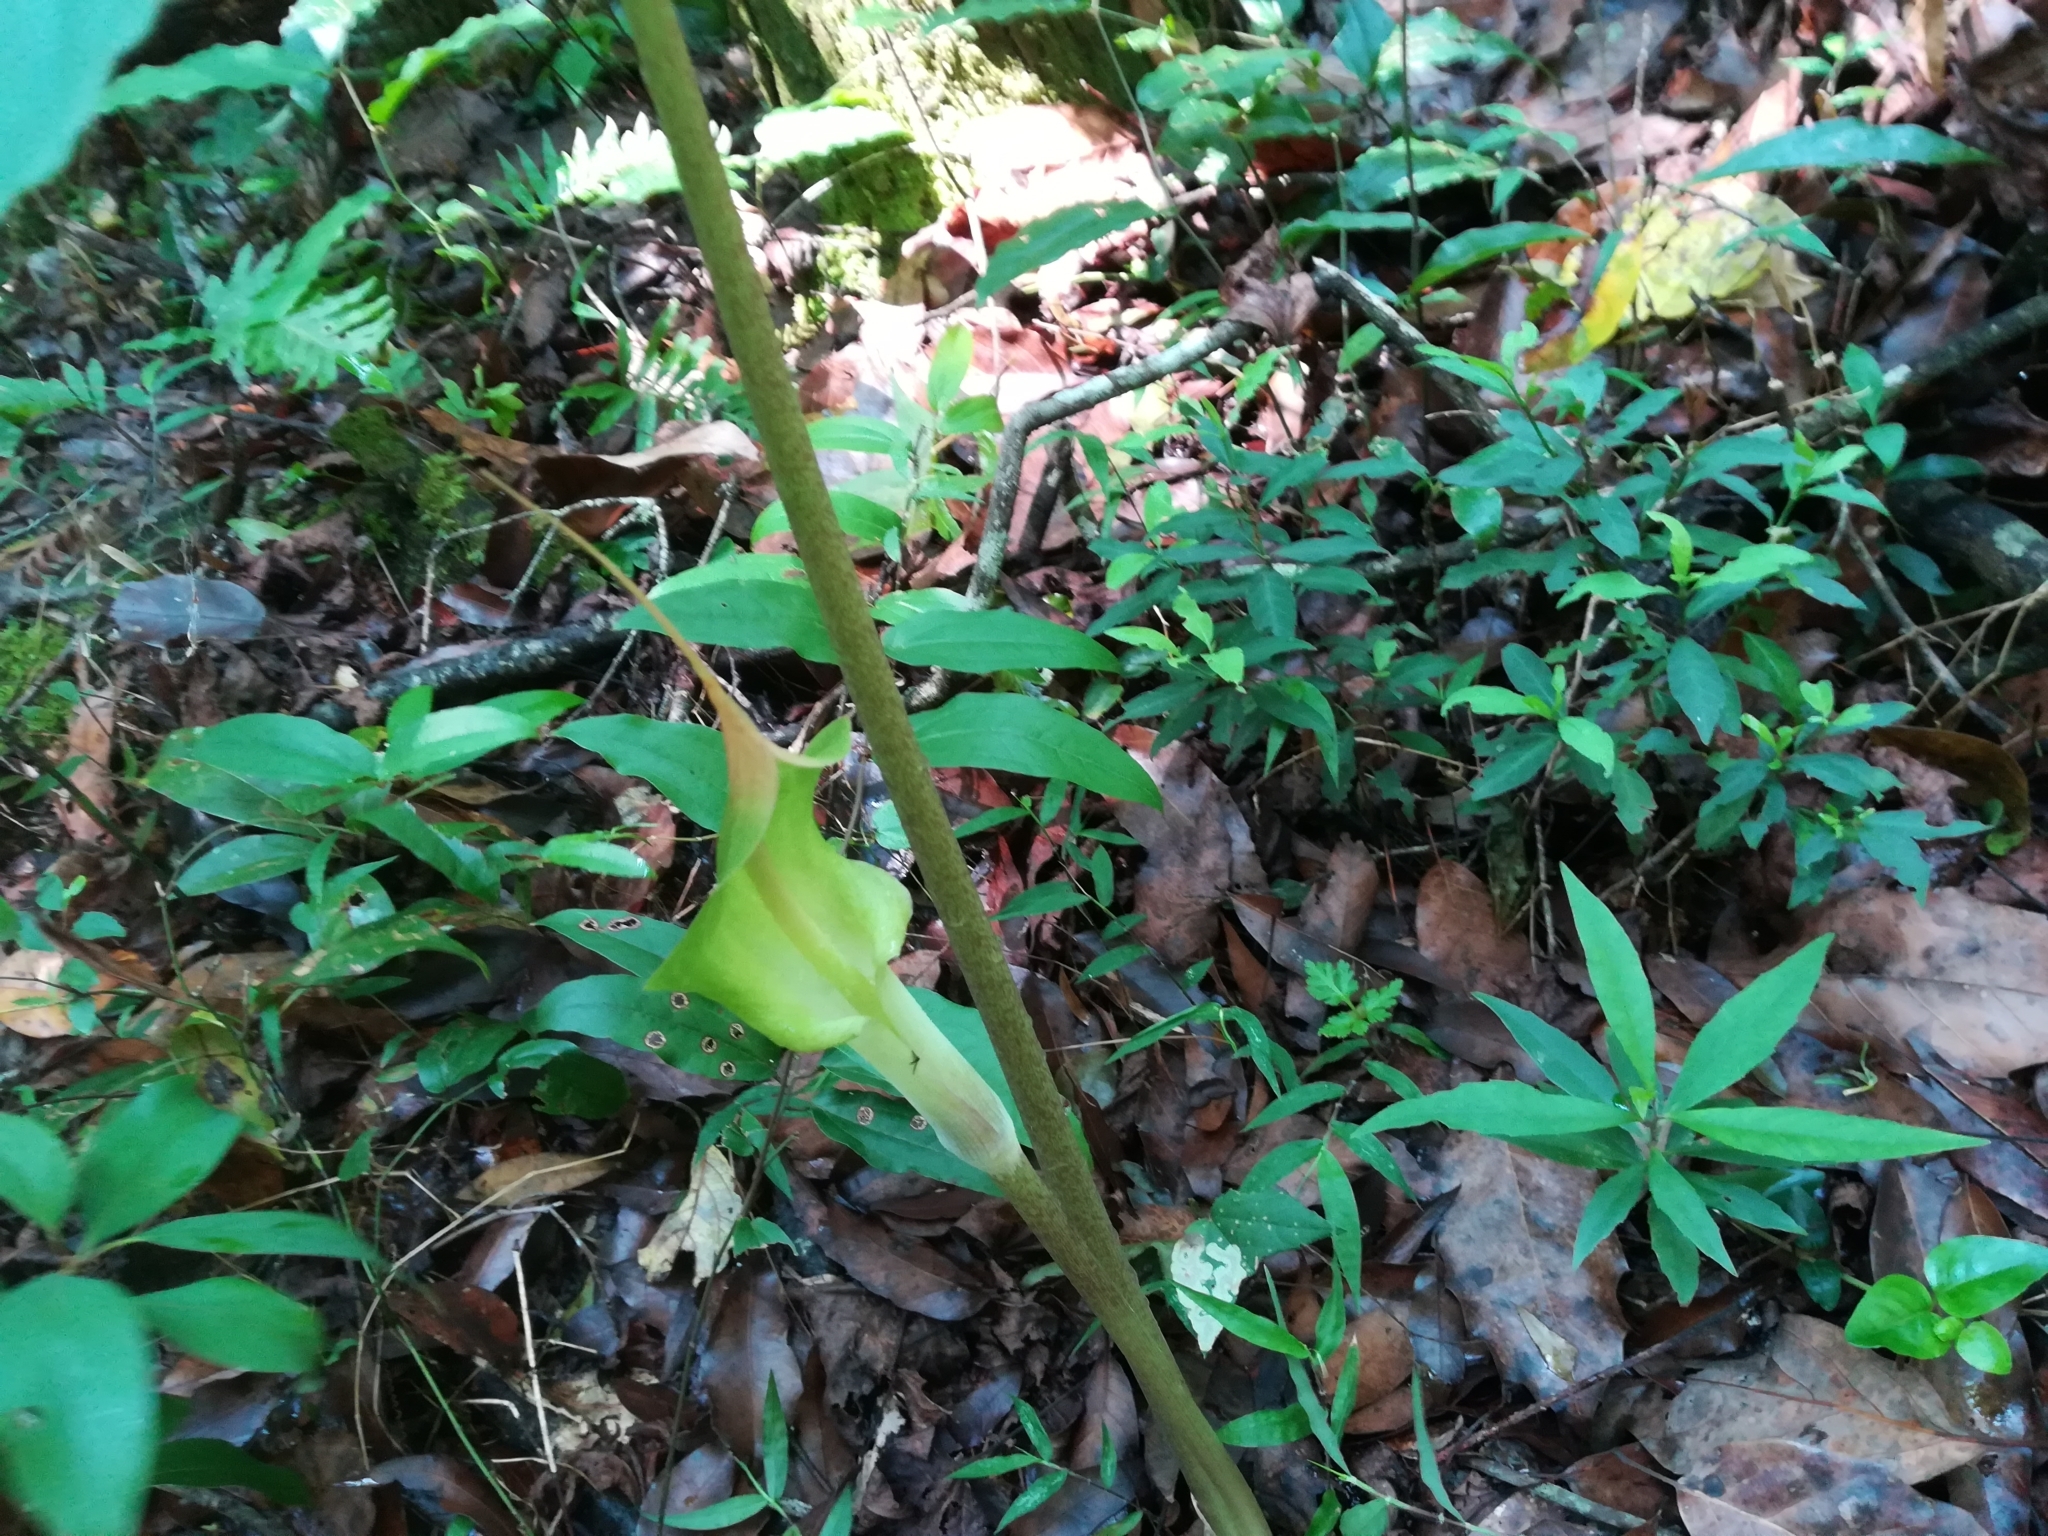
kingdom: Plantae
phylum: Tracheophyta
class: Liliopsida
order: Alismatales
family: Araceae
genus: Arisaema
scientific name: Arisaema macrospathum
